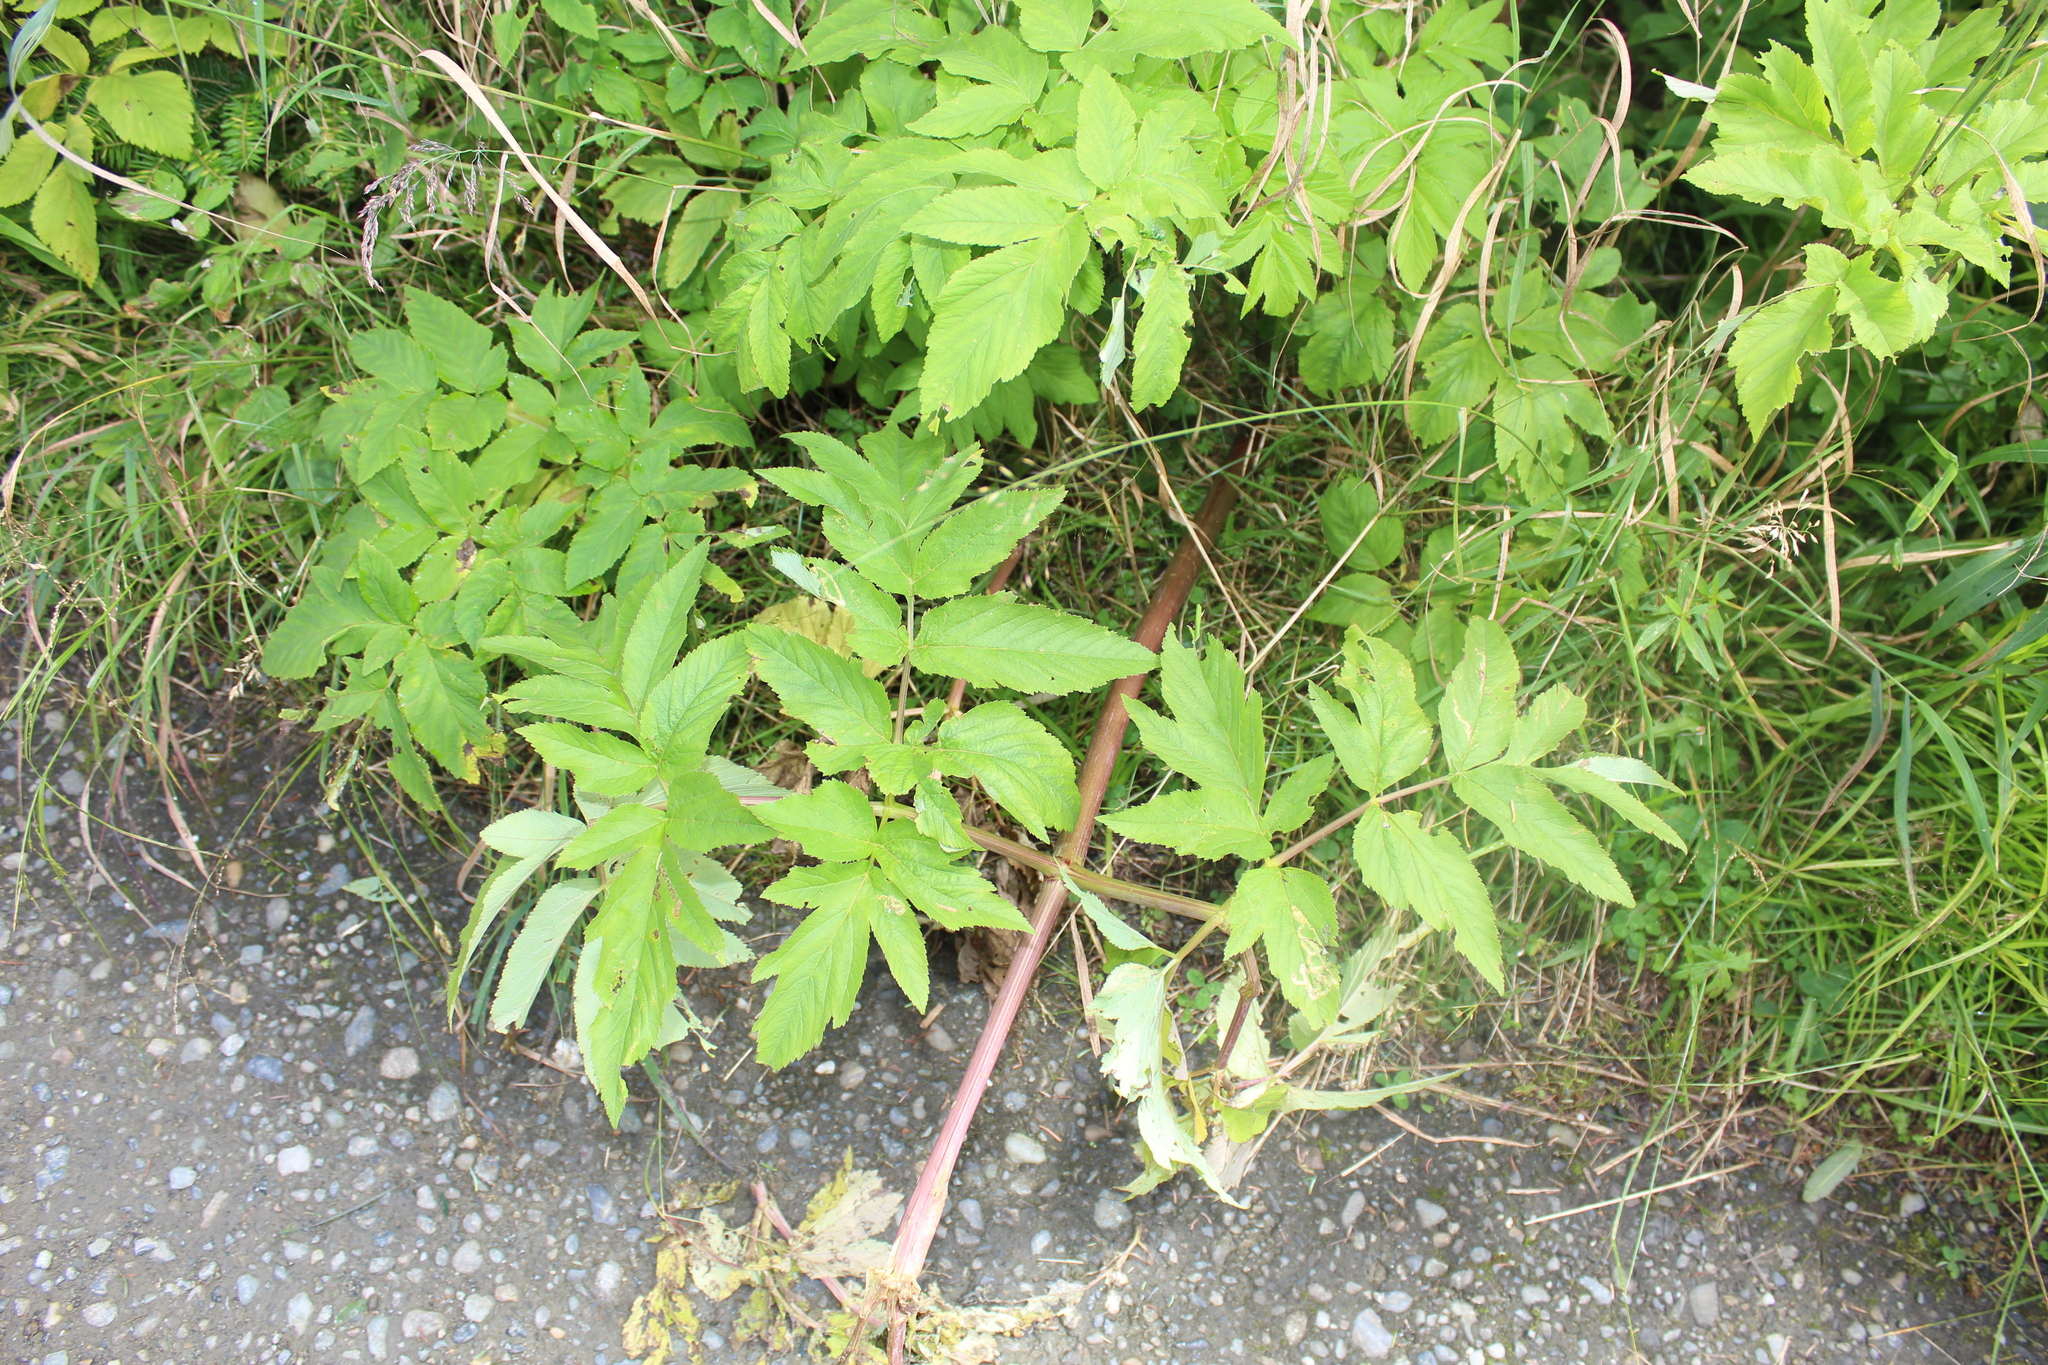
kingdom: Plantae
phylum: Tracheophyta
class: Magnoliopsida
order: Apiales
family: Apiaceae
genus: Angelica
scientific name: Angelica atropurpurea
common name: Great angelica
